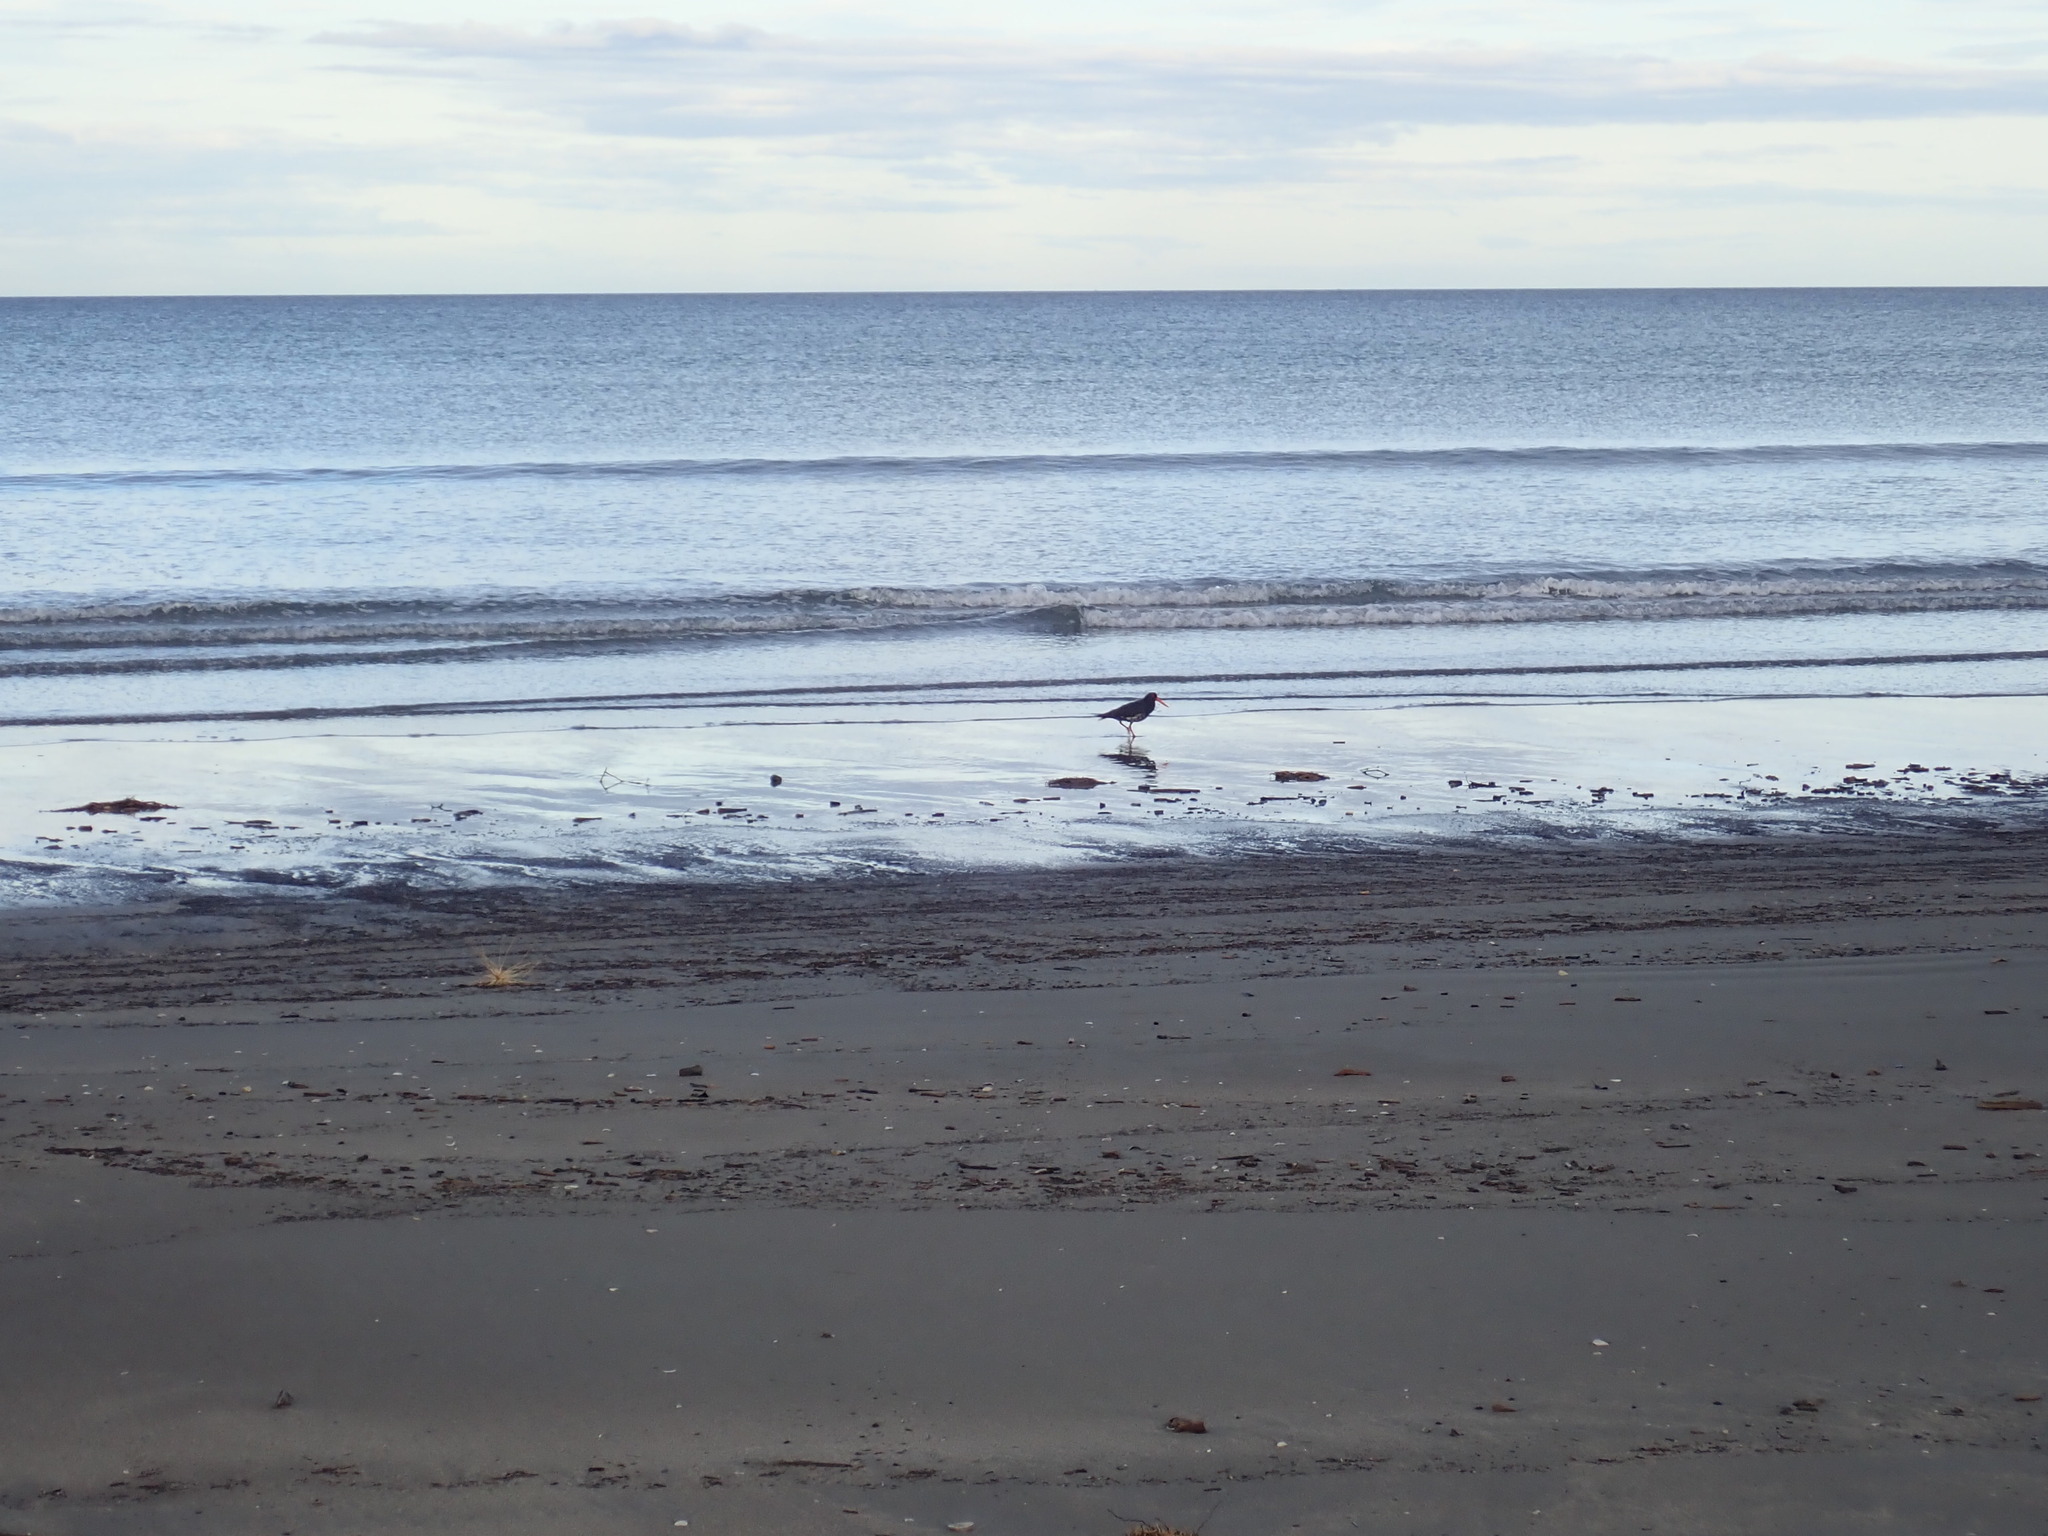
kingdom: Animalia
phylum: Chordata
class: Aves
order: Charadriiformes
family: Haematopodidae
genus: Haematopus
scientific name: Haematopus unicolor
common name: Variable oystercatcher
